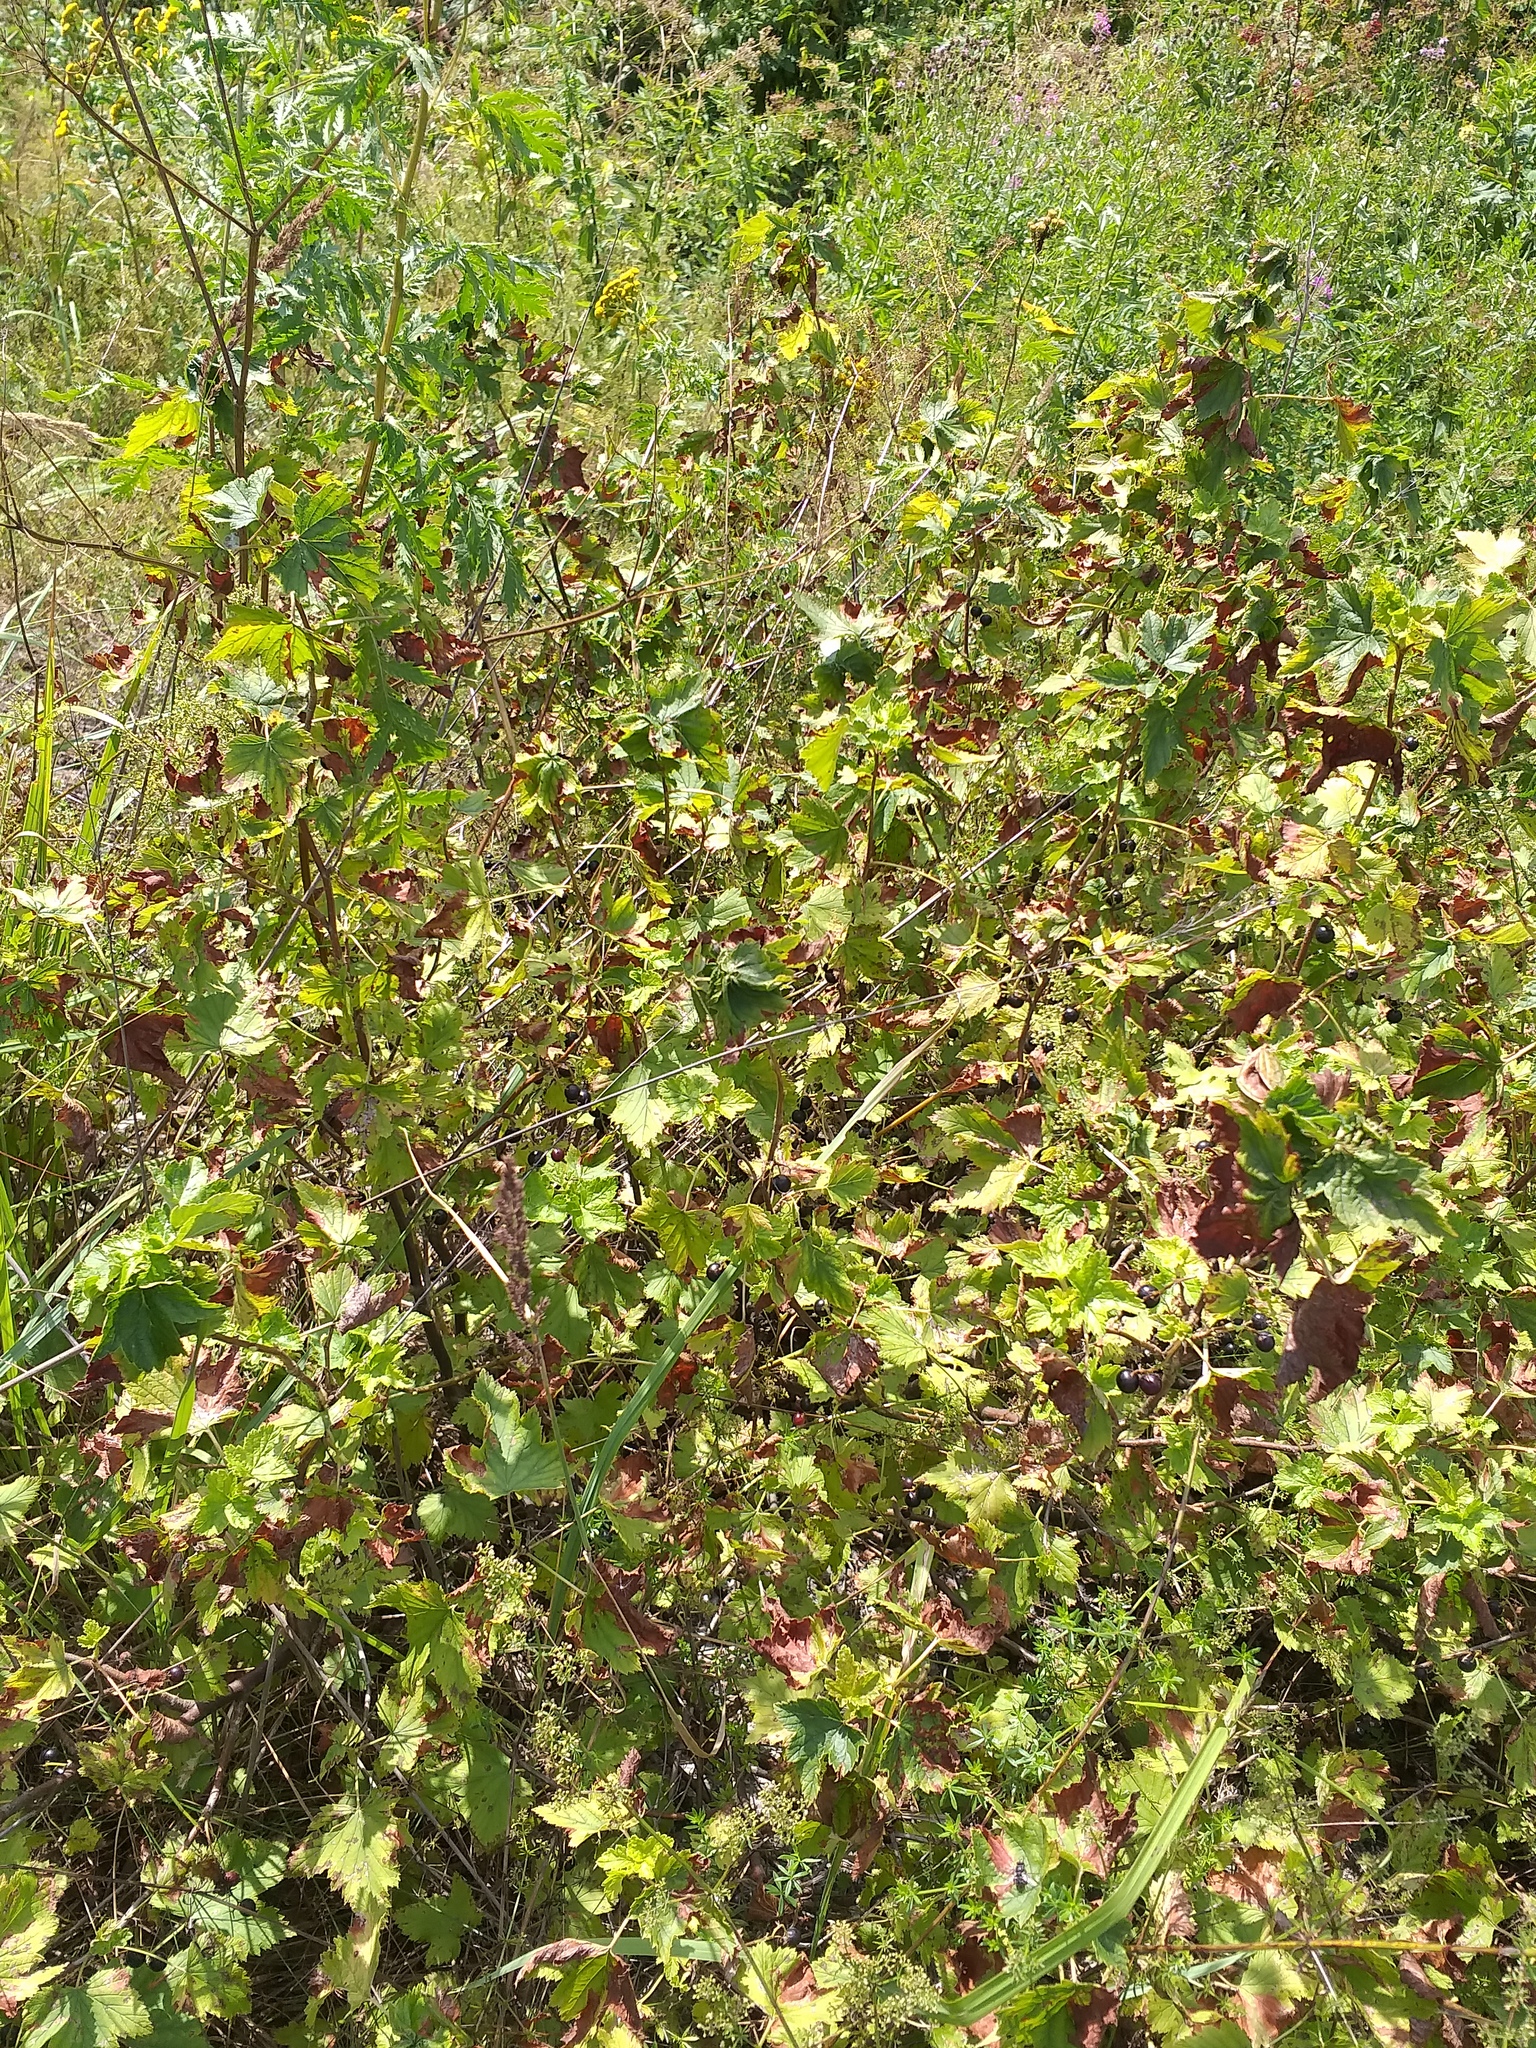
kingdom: Plantae
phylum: Tracheophyta
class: Magnoliopsida
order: Saxifragales
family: Grossulariaceae
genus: Ribes
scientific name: Ribes nigrum
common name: Black currant
